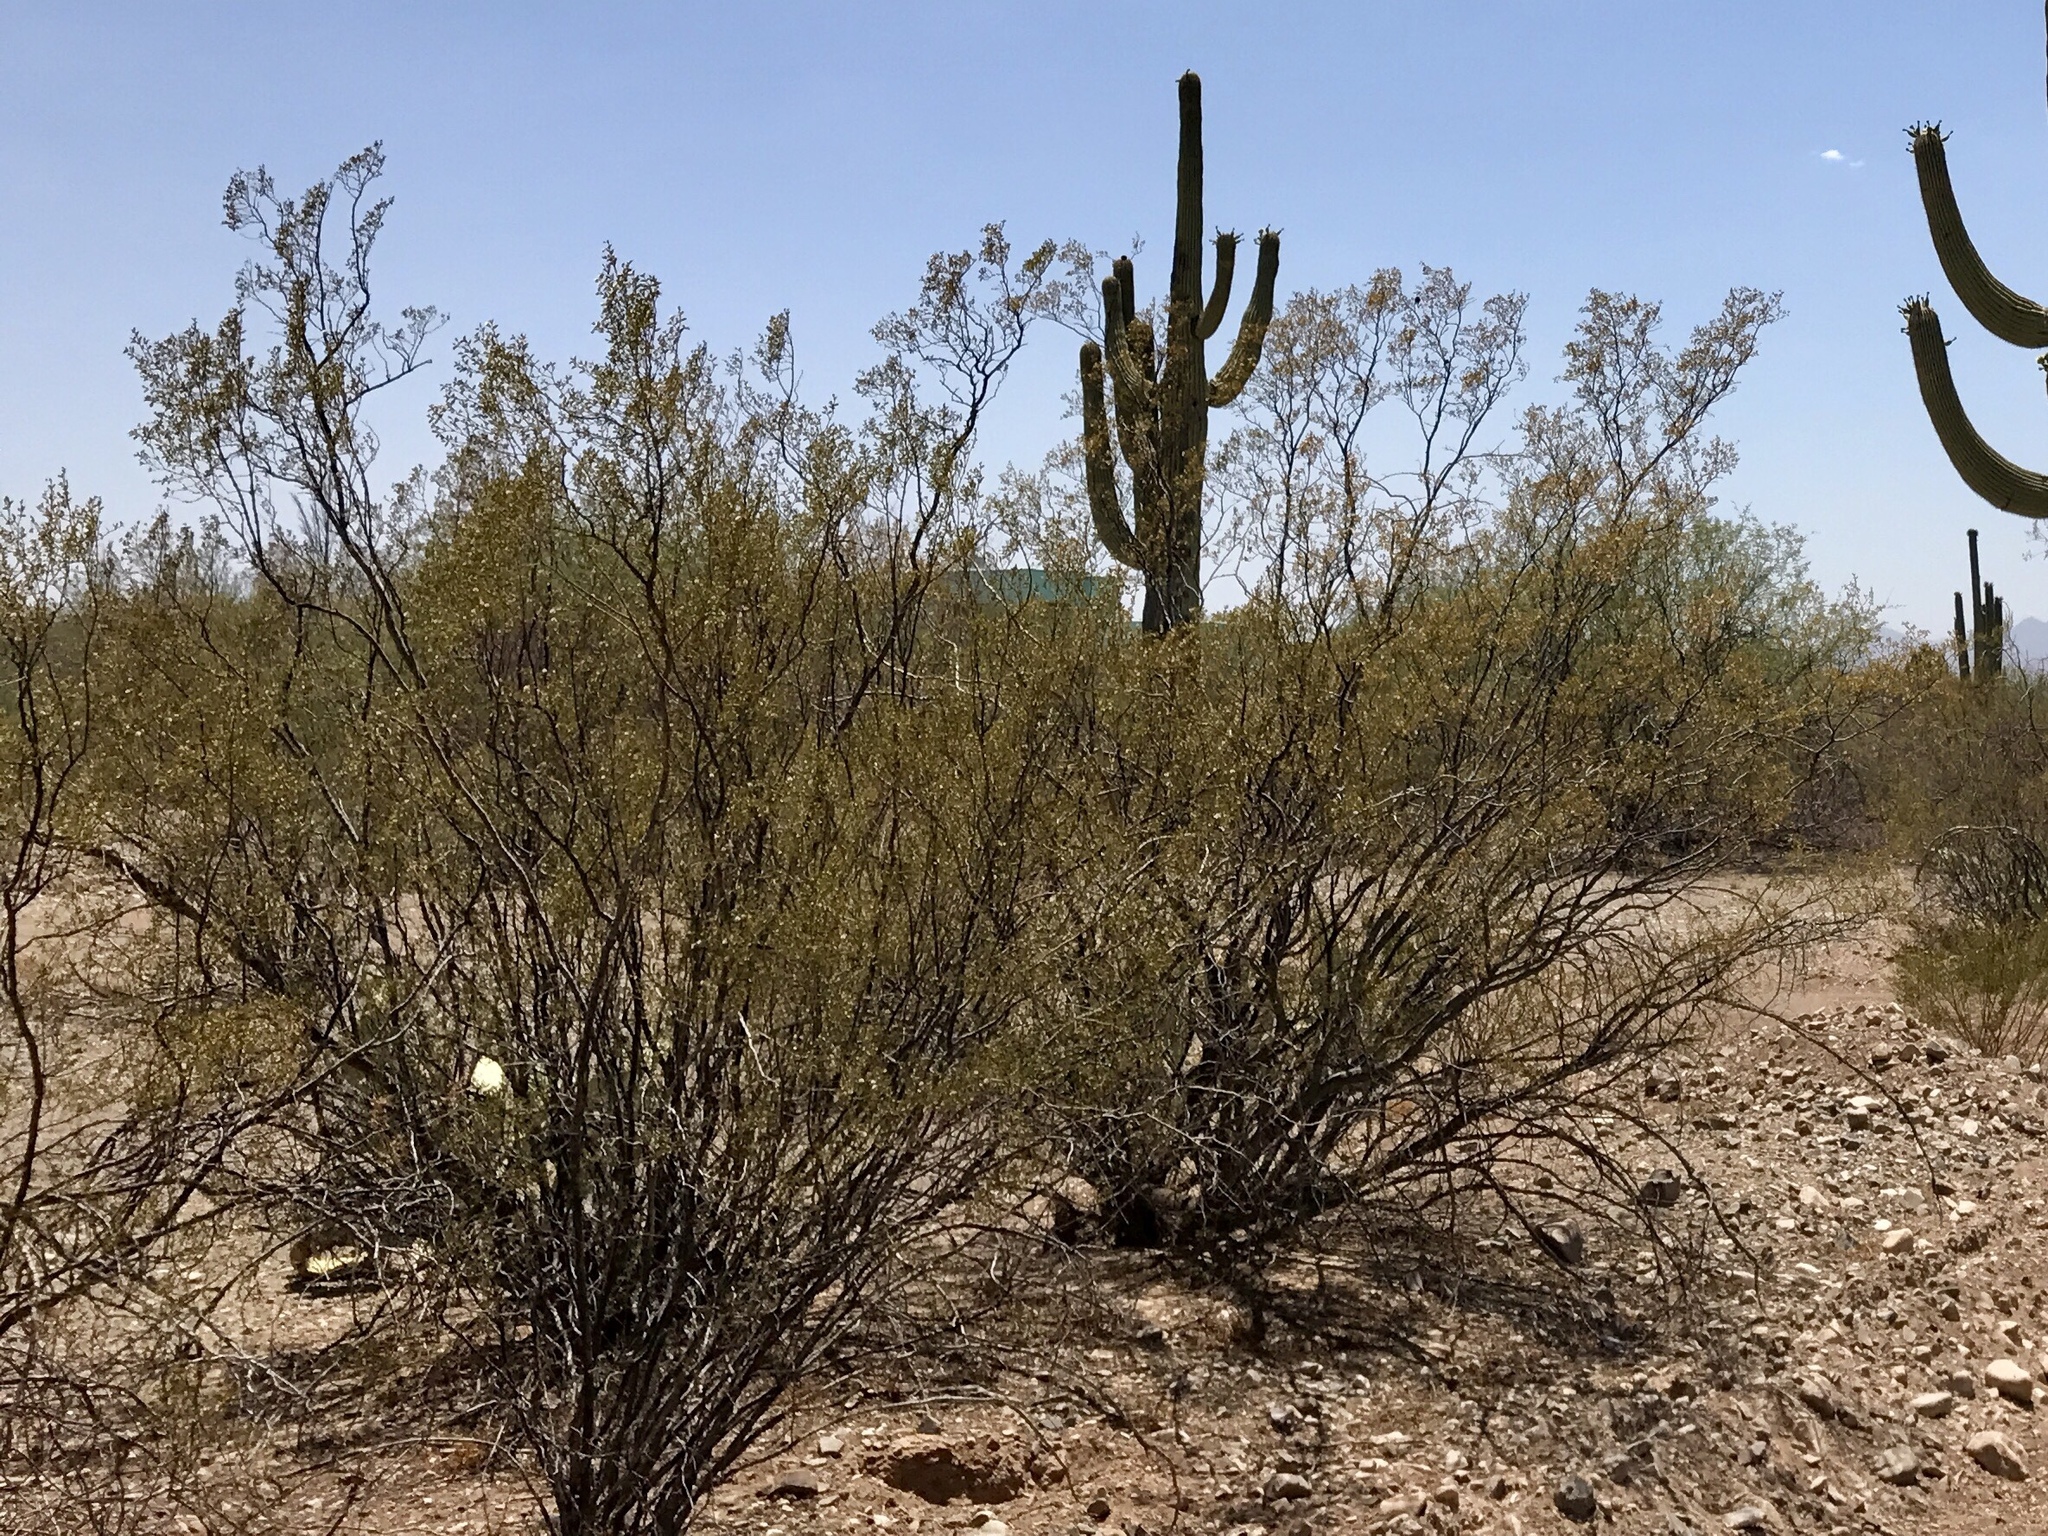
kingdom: Plantae
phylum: Tracheophyta
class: Magnoliopsida
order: Zygophyllales
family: Zygophyllaceae
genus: Larrea
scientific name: Larrea tridentata
